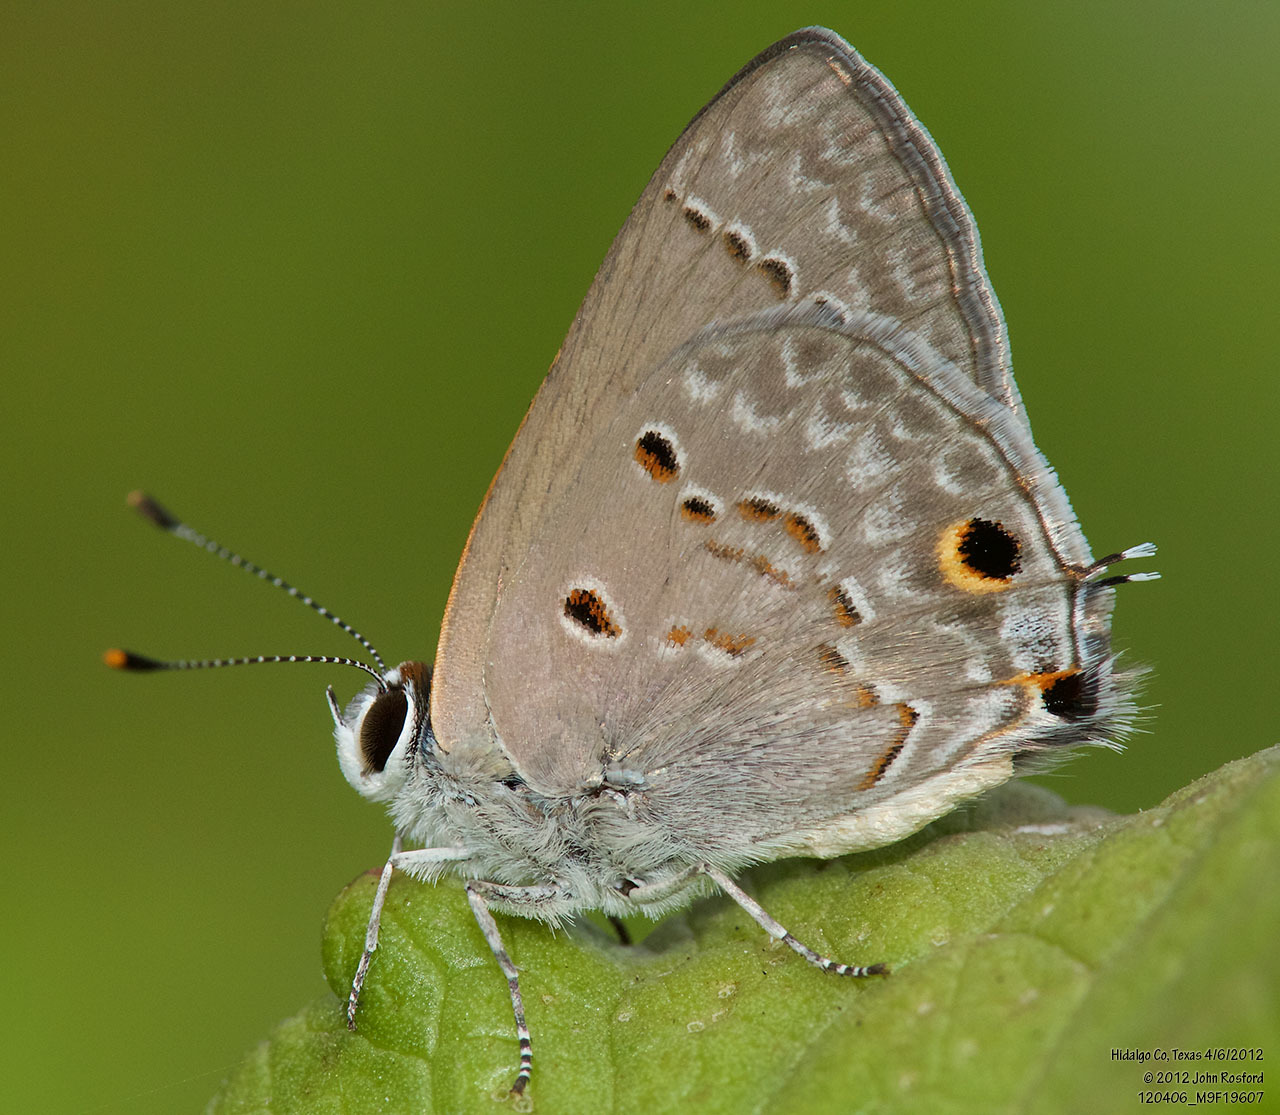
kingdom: Animalia
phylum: Arthropoda
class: Insecta
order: Lepidoptera
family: Lycaenidae
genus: Callicista
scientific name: Callicista columella
